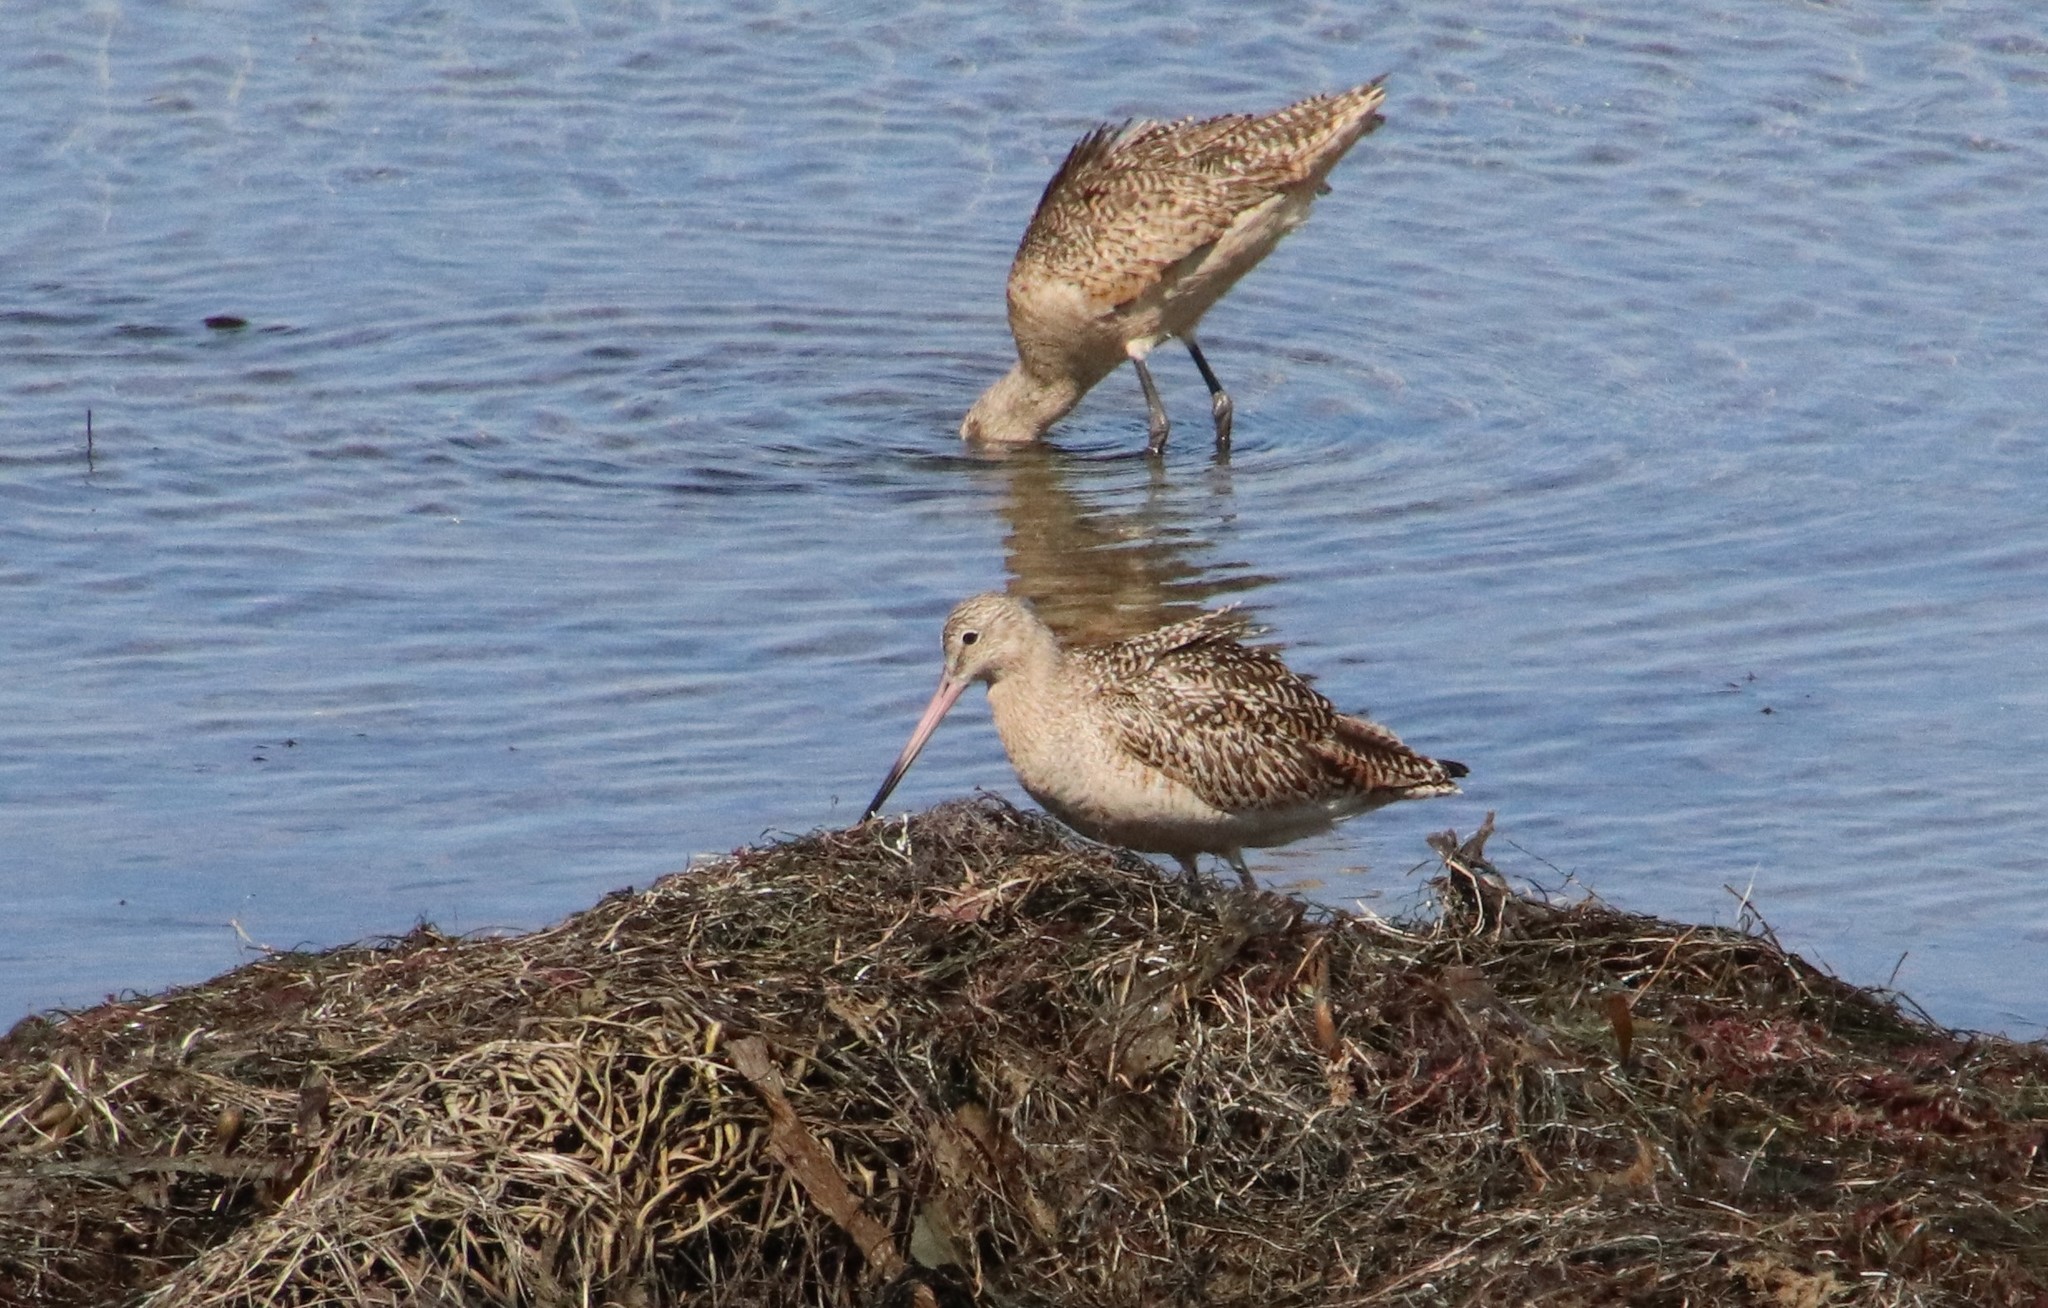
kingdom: Animalia
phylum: Chordata
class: Aves
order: Charadriiformes
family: Scolopacidae
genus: Limosa
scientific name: Limosa fedoa
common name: Marbled godwit
